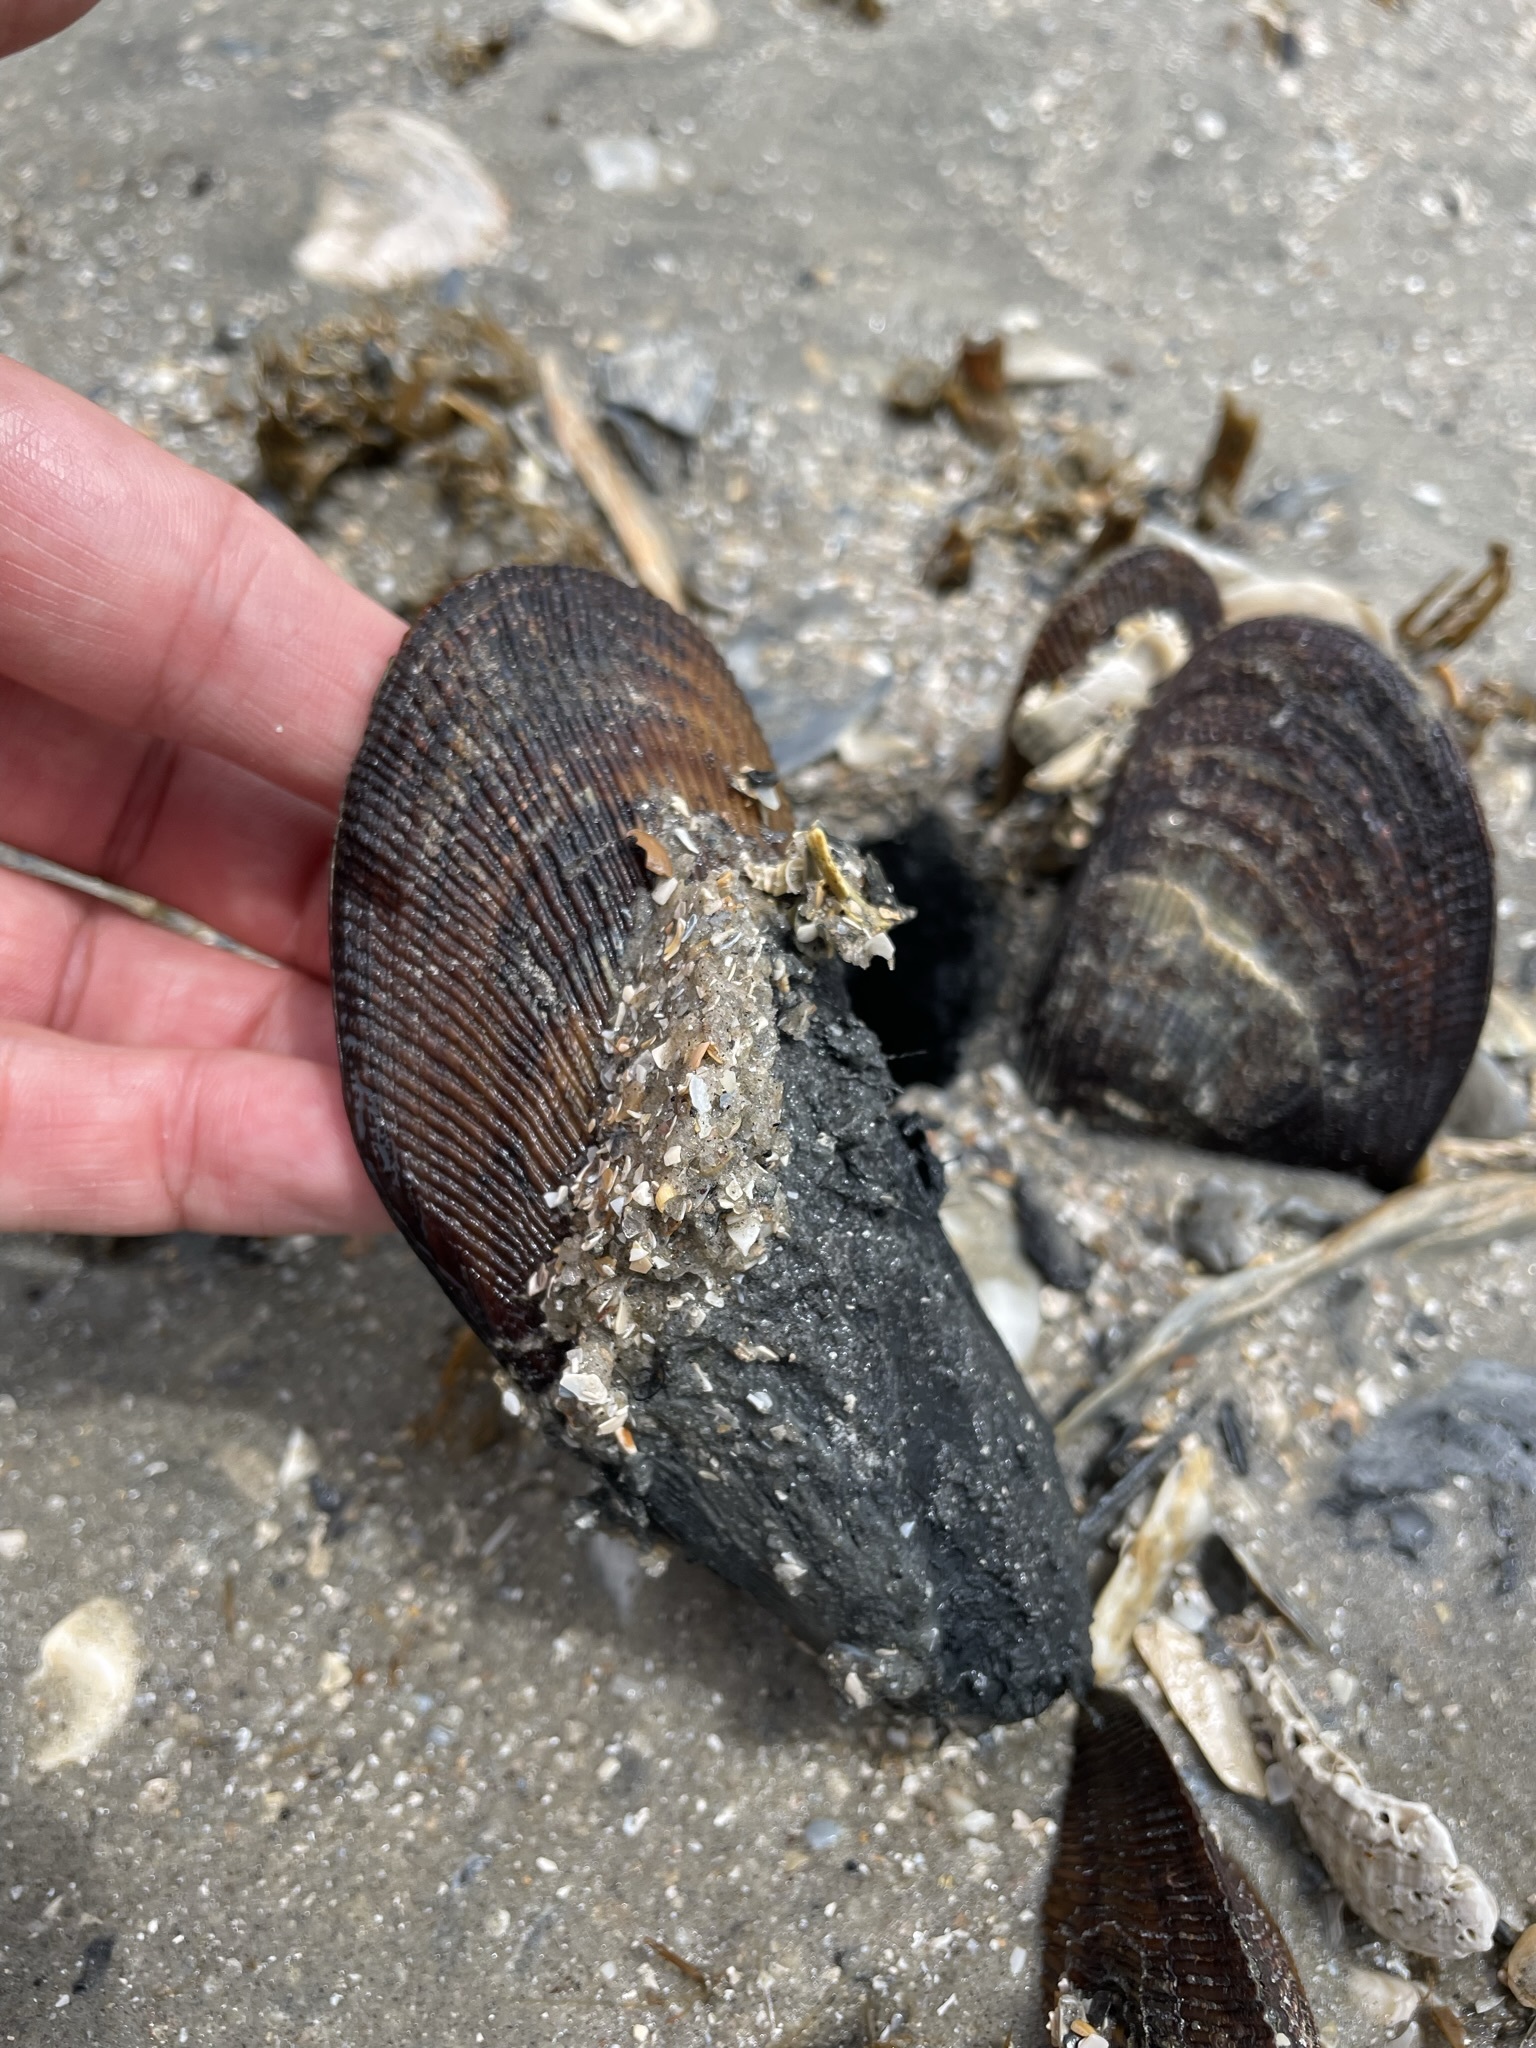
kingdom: Animalia
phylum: Mollusca
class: Bivalvia
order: Mytilida
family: Mytilidae
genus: Geukensia
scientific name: Geukensia demissa
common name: Ribbed mussel
